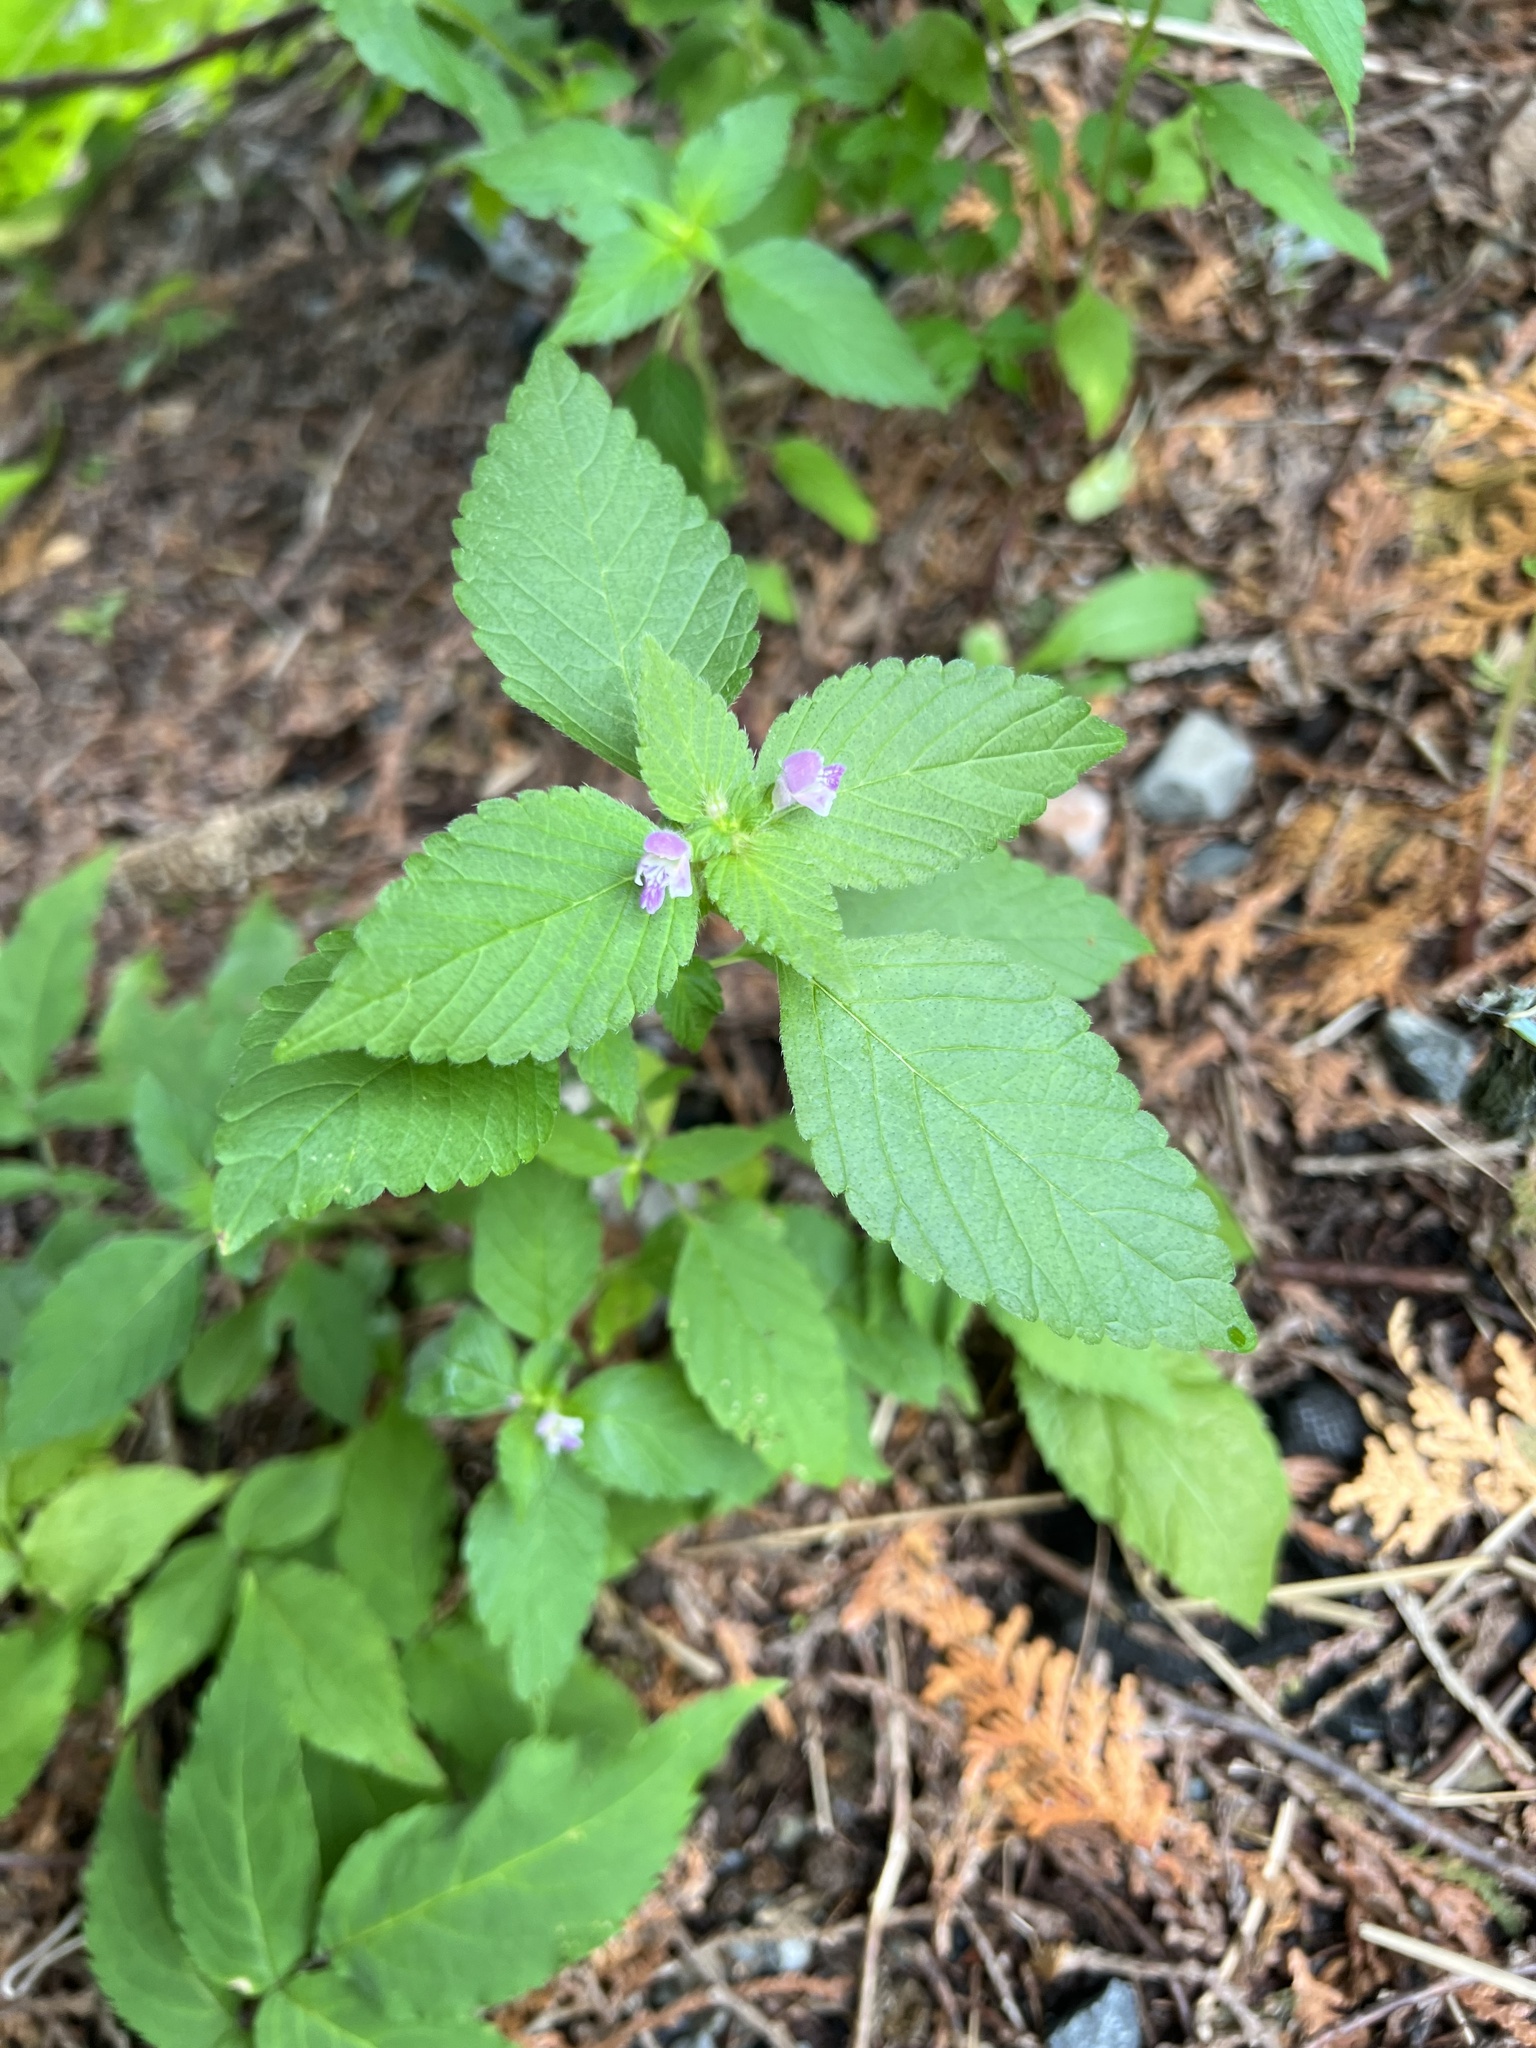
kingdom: Plantae
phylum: Tracheophyta
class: Magnoliopsida
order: Lamiales
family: Lamiaceae
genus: Galeopsis
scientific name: Galeopsis bifida
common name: Bifid hemp-nettle
